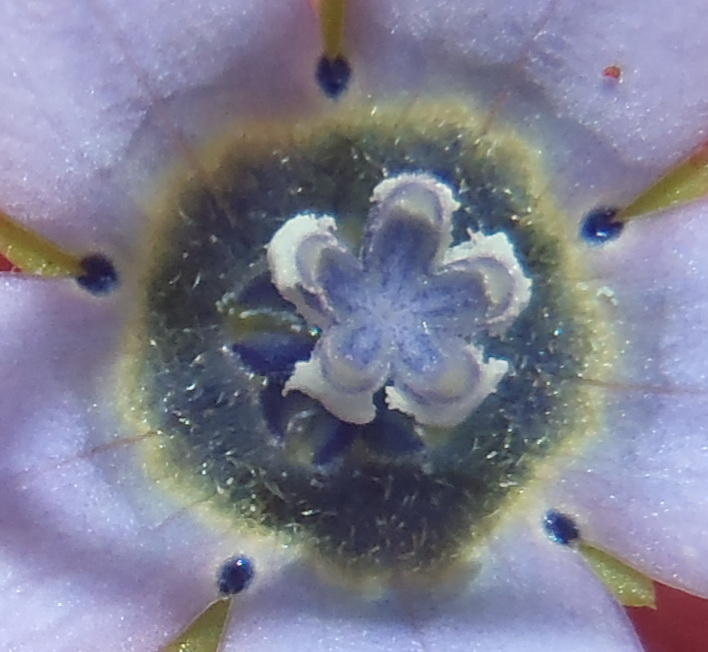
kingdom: Plantae
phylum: Tracheophyta
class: Magnoliopsida
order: Asterales
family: Campanulaceae
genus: Wahlenbergia
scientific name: Wahlenbergia capensis
